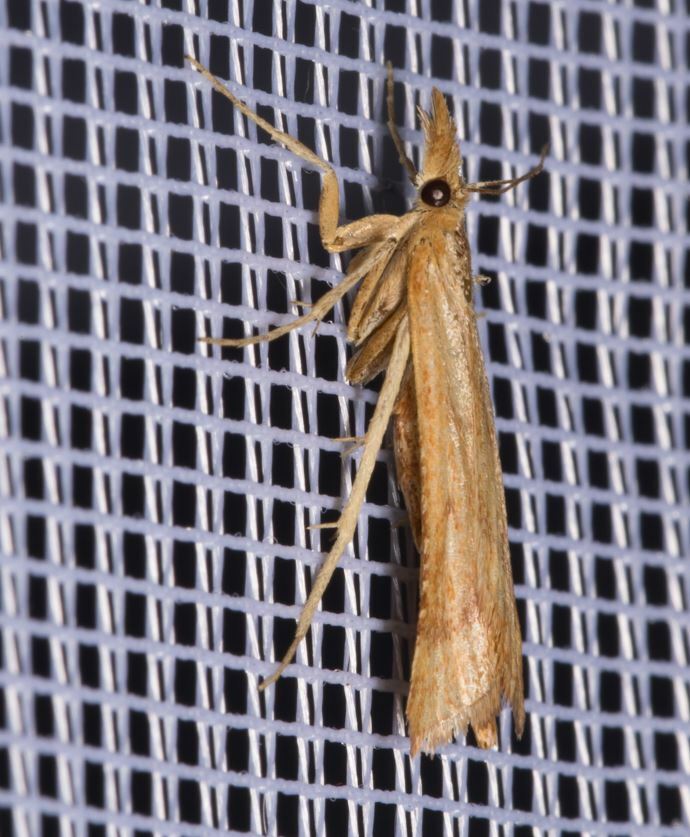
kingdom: Animalia
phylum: Arthropoda
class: Insecta
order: Lepidoptera
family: Pyralidae
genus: Synaphe
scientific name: Synaphe punctalis
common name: Long-legged tabby
